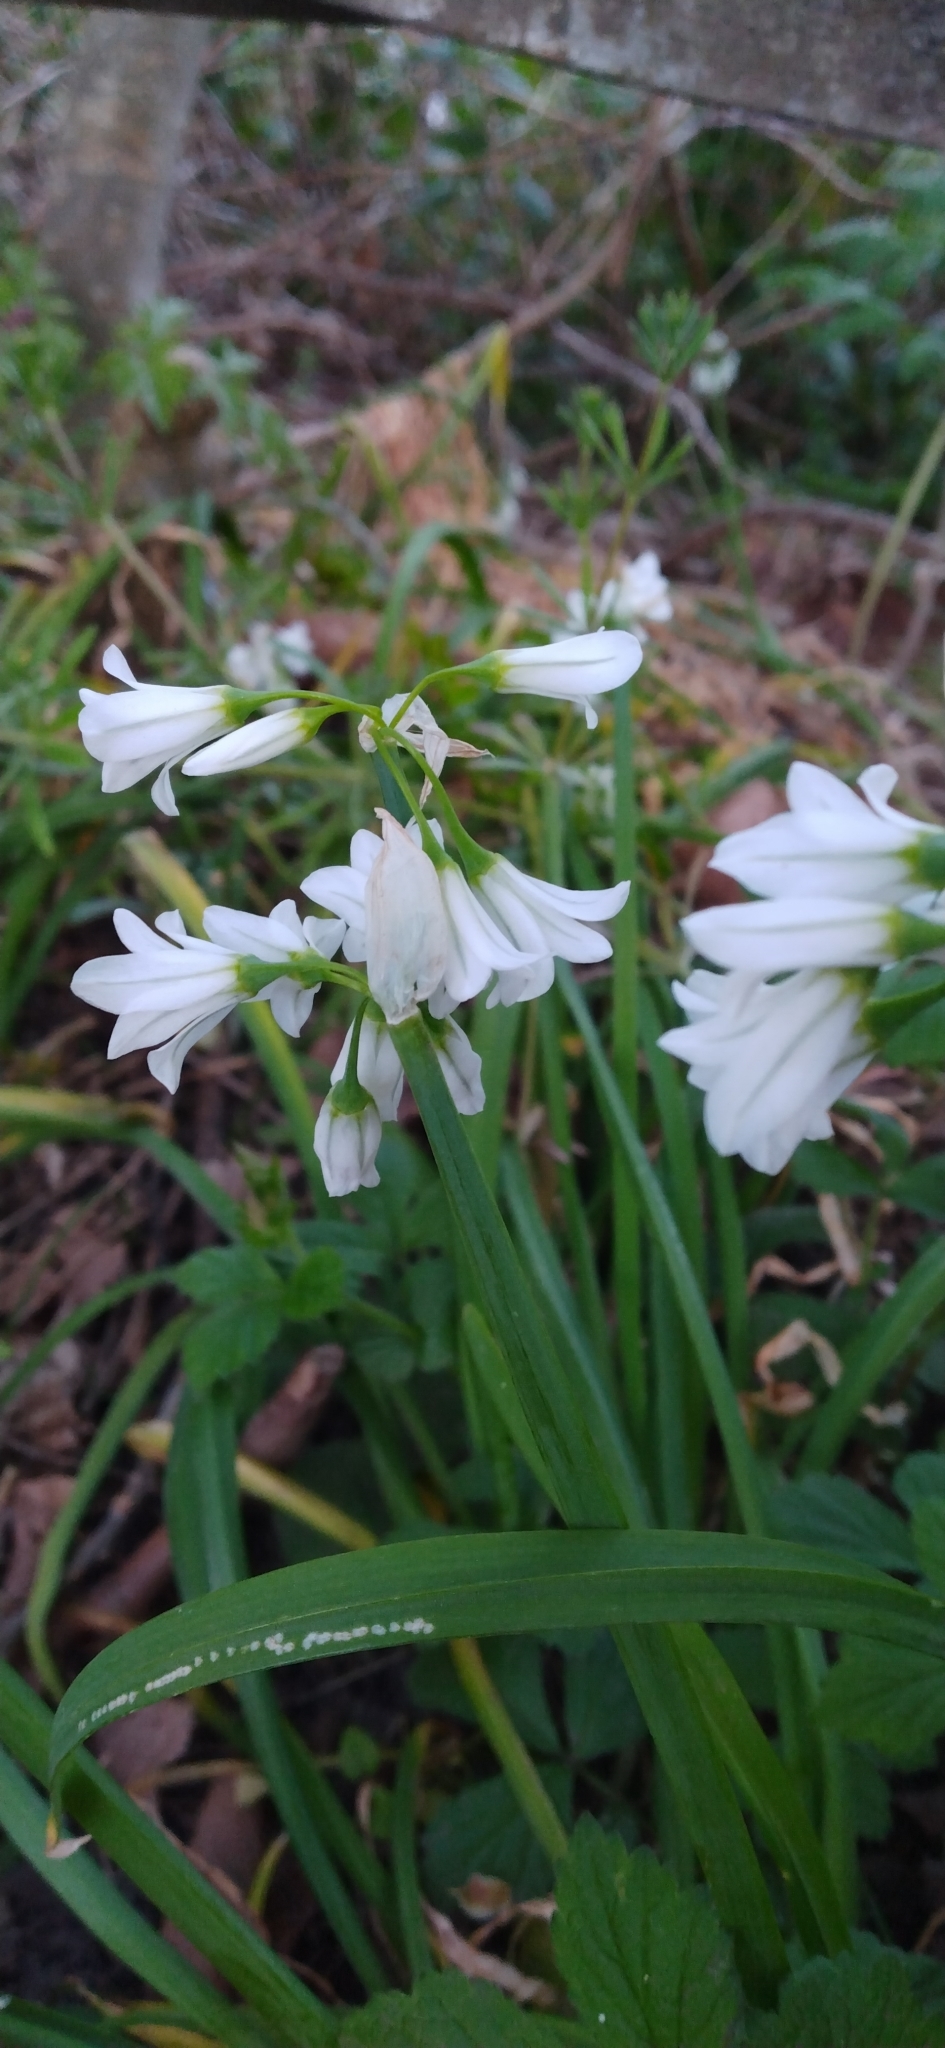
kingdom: Plantae
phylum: Tracheophyta
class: Liliopsida
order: Asparagales
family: Amaryllidaceae
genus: Allium
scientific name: Allium triquetrum
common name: Three-cornered garlic
